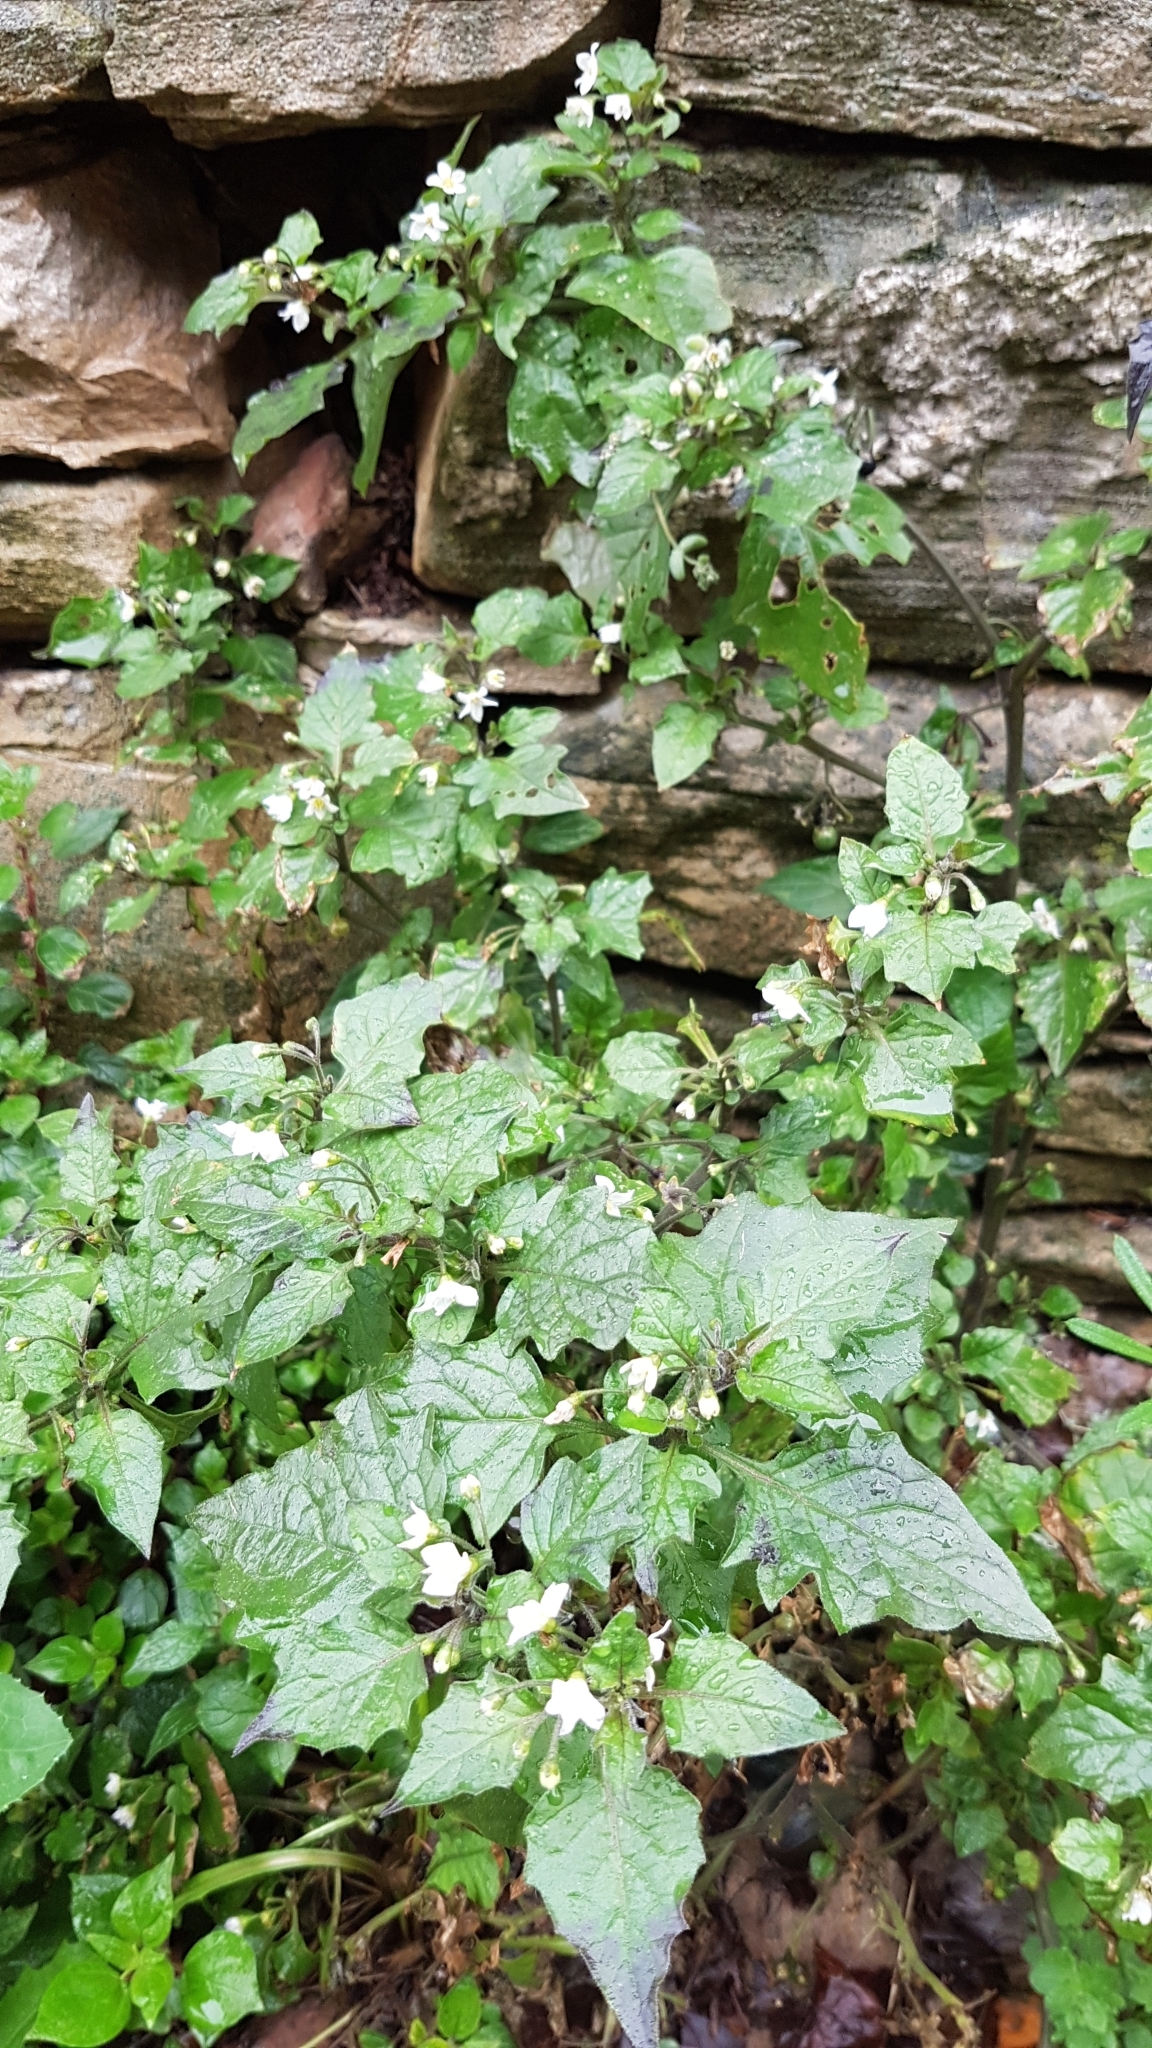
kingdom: Plantae
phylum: Tracheophyta
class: Magnoliopsida
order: Solanales
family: Solanaceae
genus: Solanum
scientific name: Solanum nigrum
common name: Black nightshade
